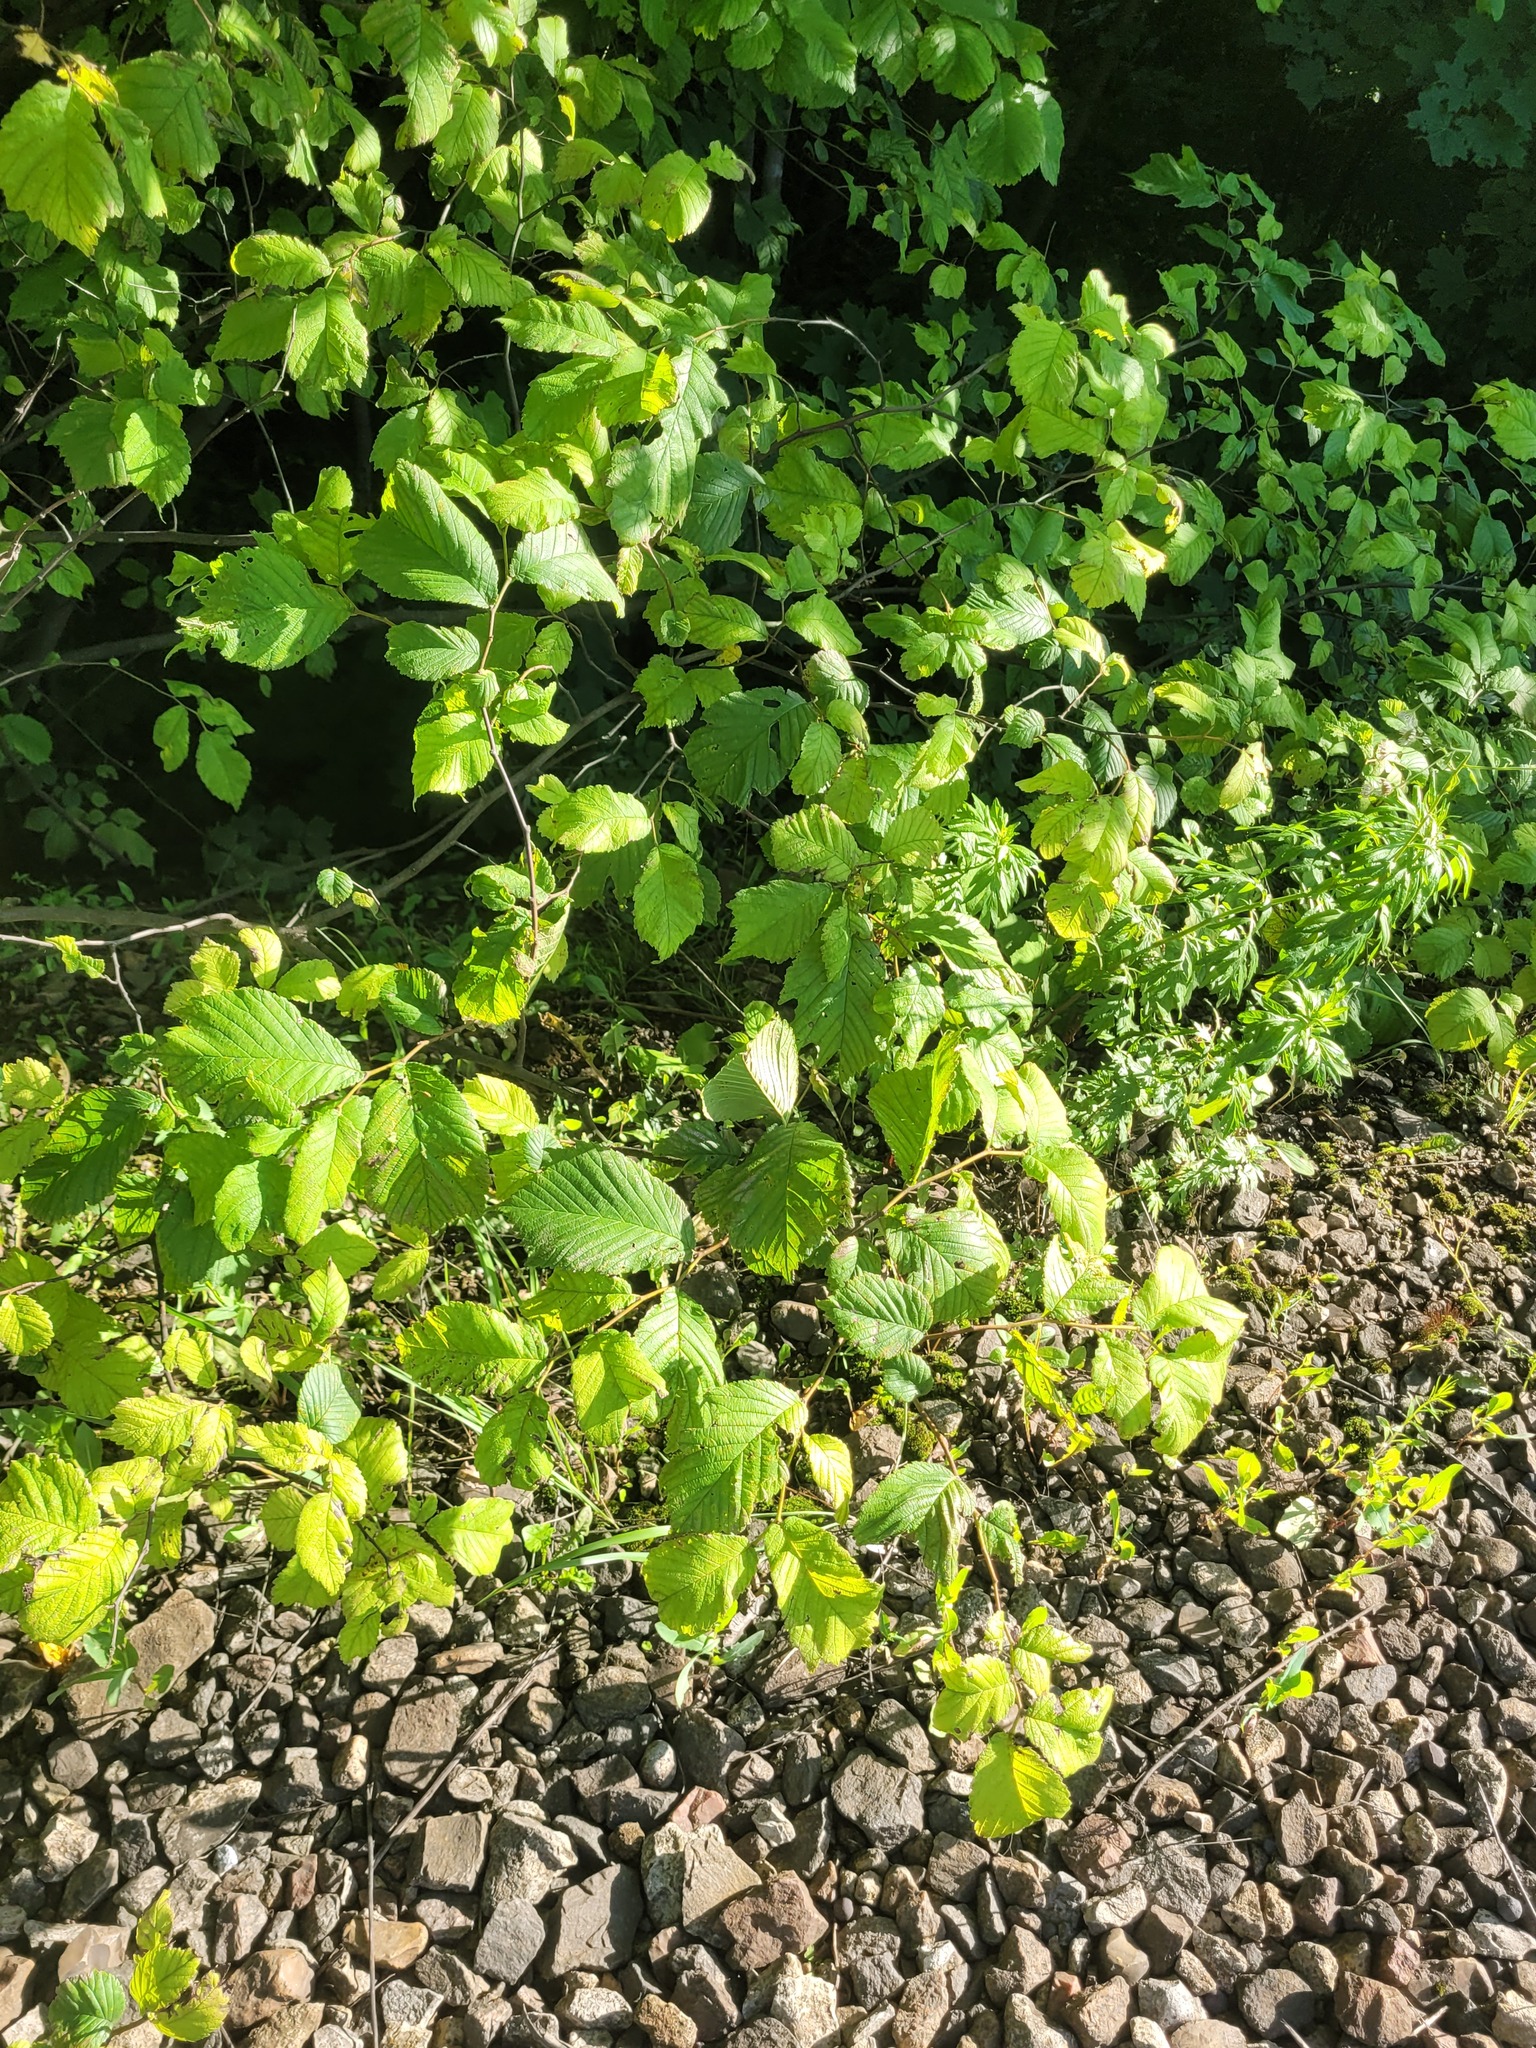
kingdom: Plantae
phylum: Tracheophyta
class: Magnoliopsida
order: Rosales
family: Ulmaceae
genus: Ulmus
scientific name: Ulmus glabra
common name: Wych elm
